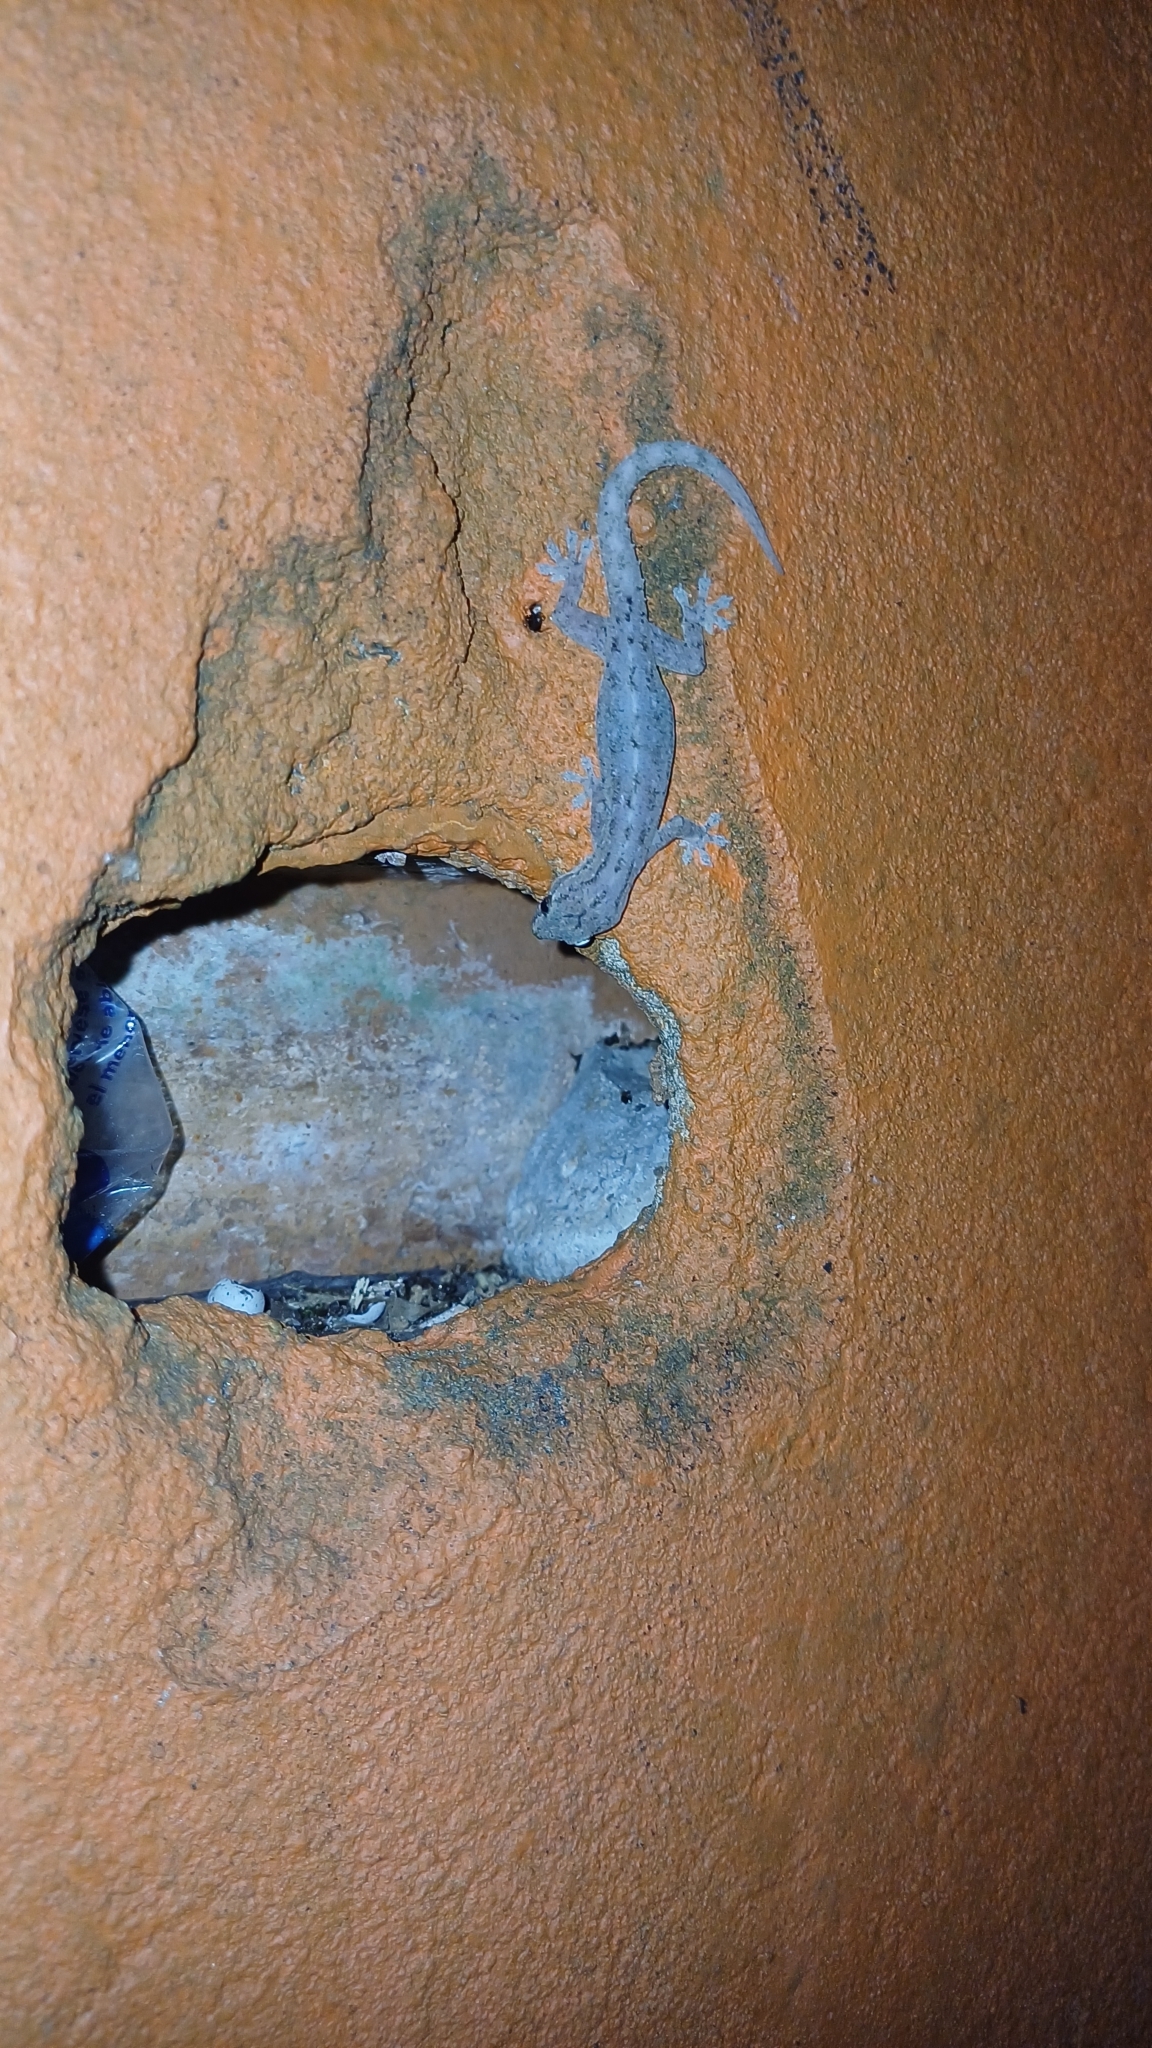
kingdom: Animalia
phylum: Chordata
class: Squamata
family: Gekkonidae
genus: Hemidactylus
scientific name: Hemidactylus frenatus
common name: Common house gecko
